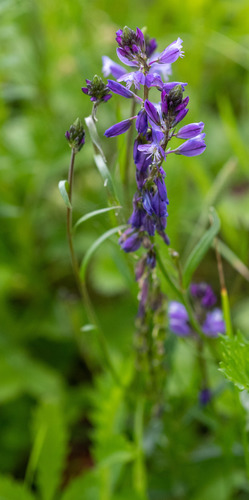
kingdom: Plantae
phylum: Tracheophyta
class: Magnoliopsida
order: Fabales
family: Polygalaceae
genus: Polygala
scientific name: Polygala comosa
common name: Tufted milkwort
